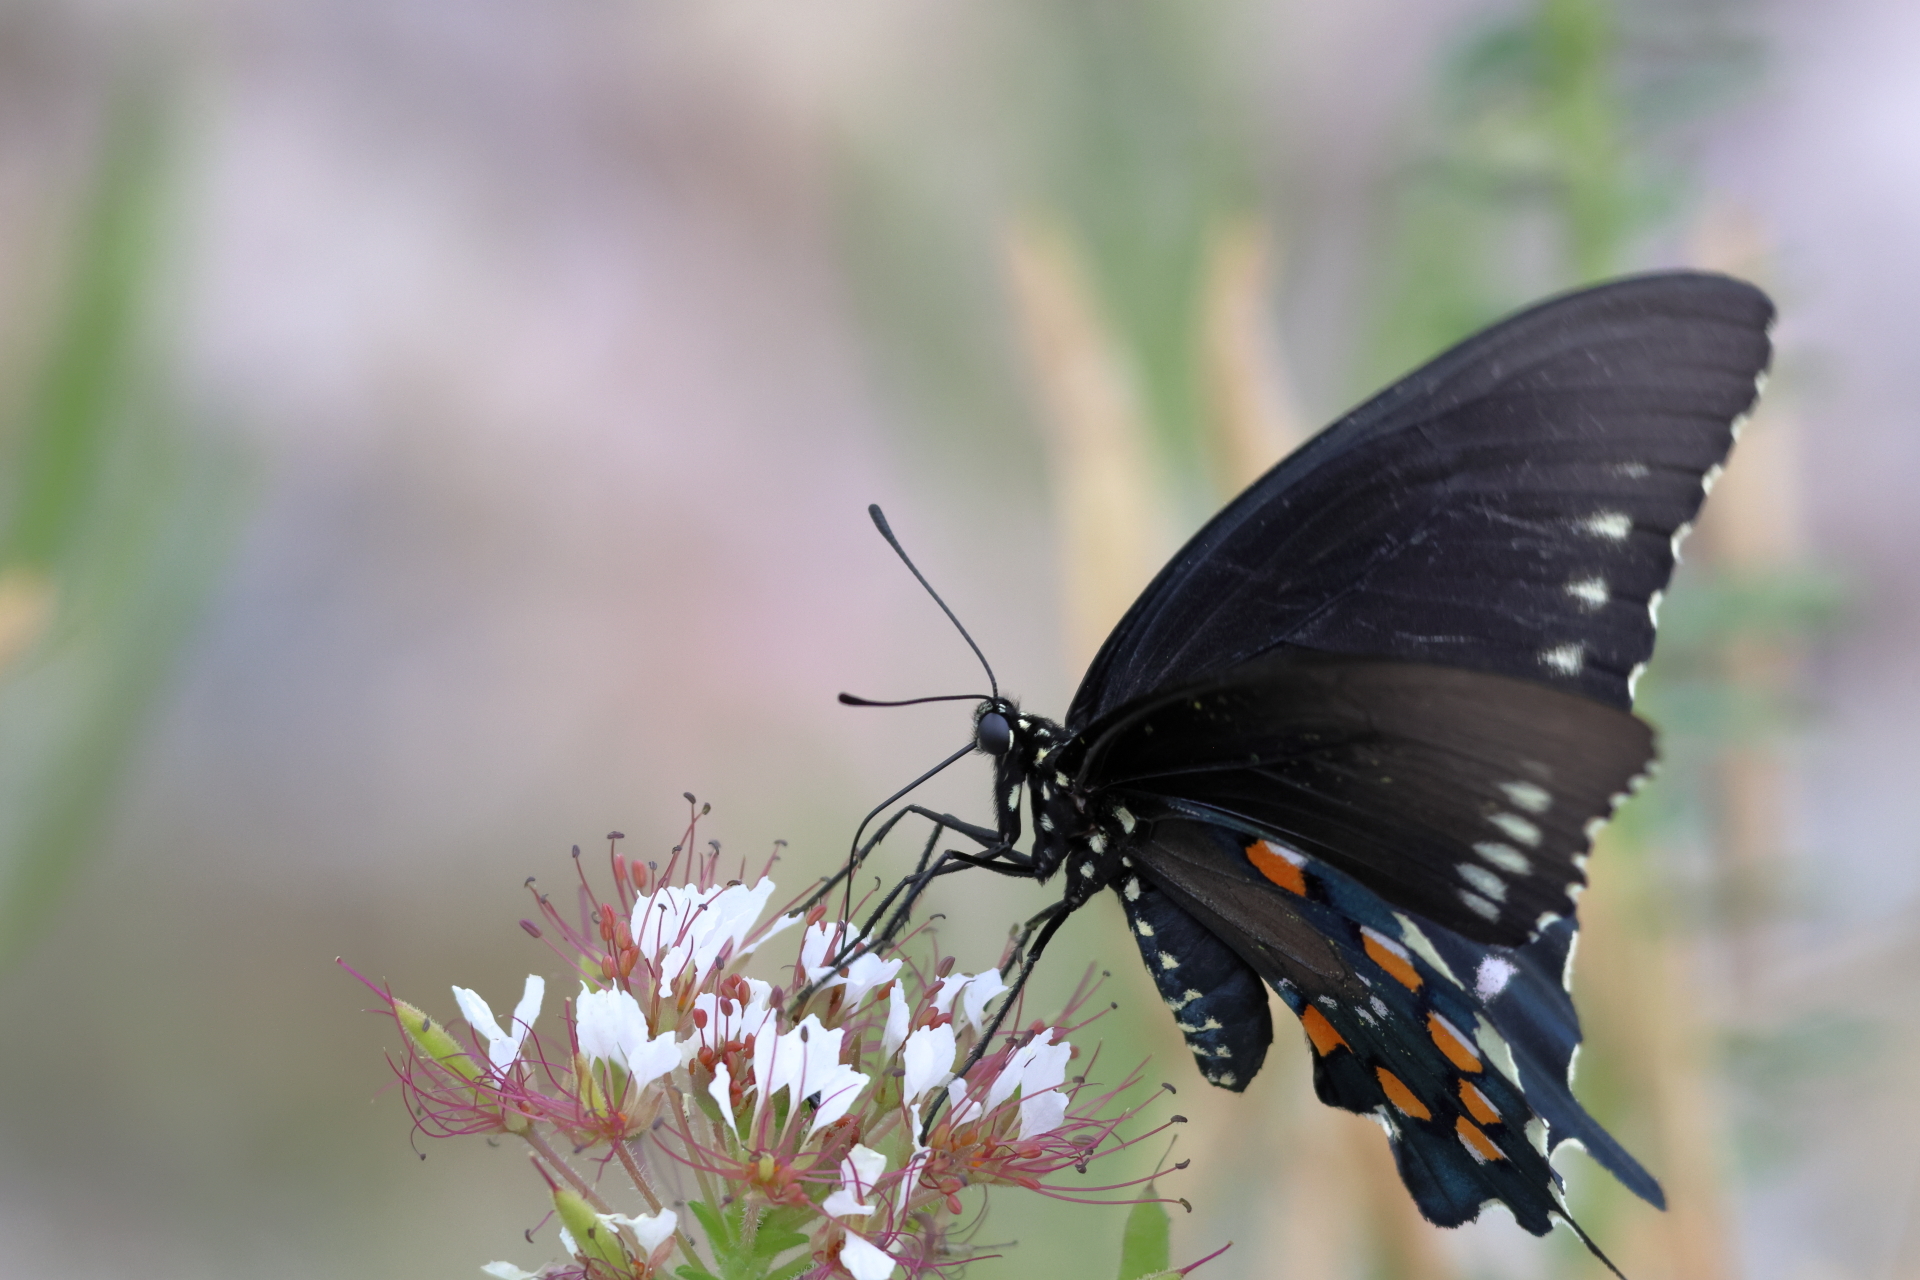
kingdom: Animalia
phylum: Arthropoda
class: Insecta
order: Lepidoptera
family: Papilionidae
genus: Battus
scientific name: Battus philenor
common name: Pipevine swallowtail
